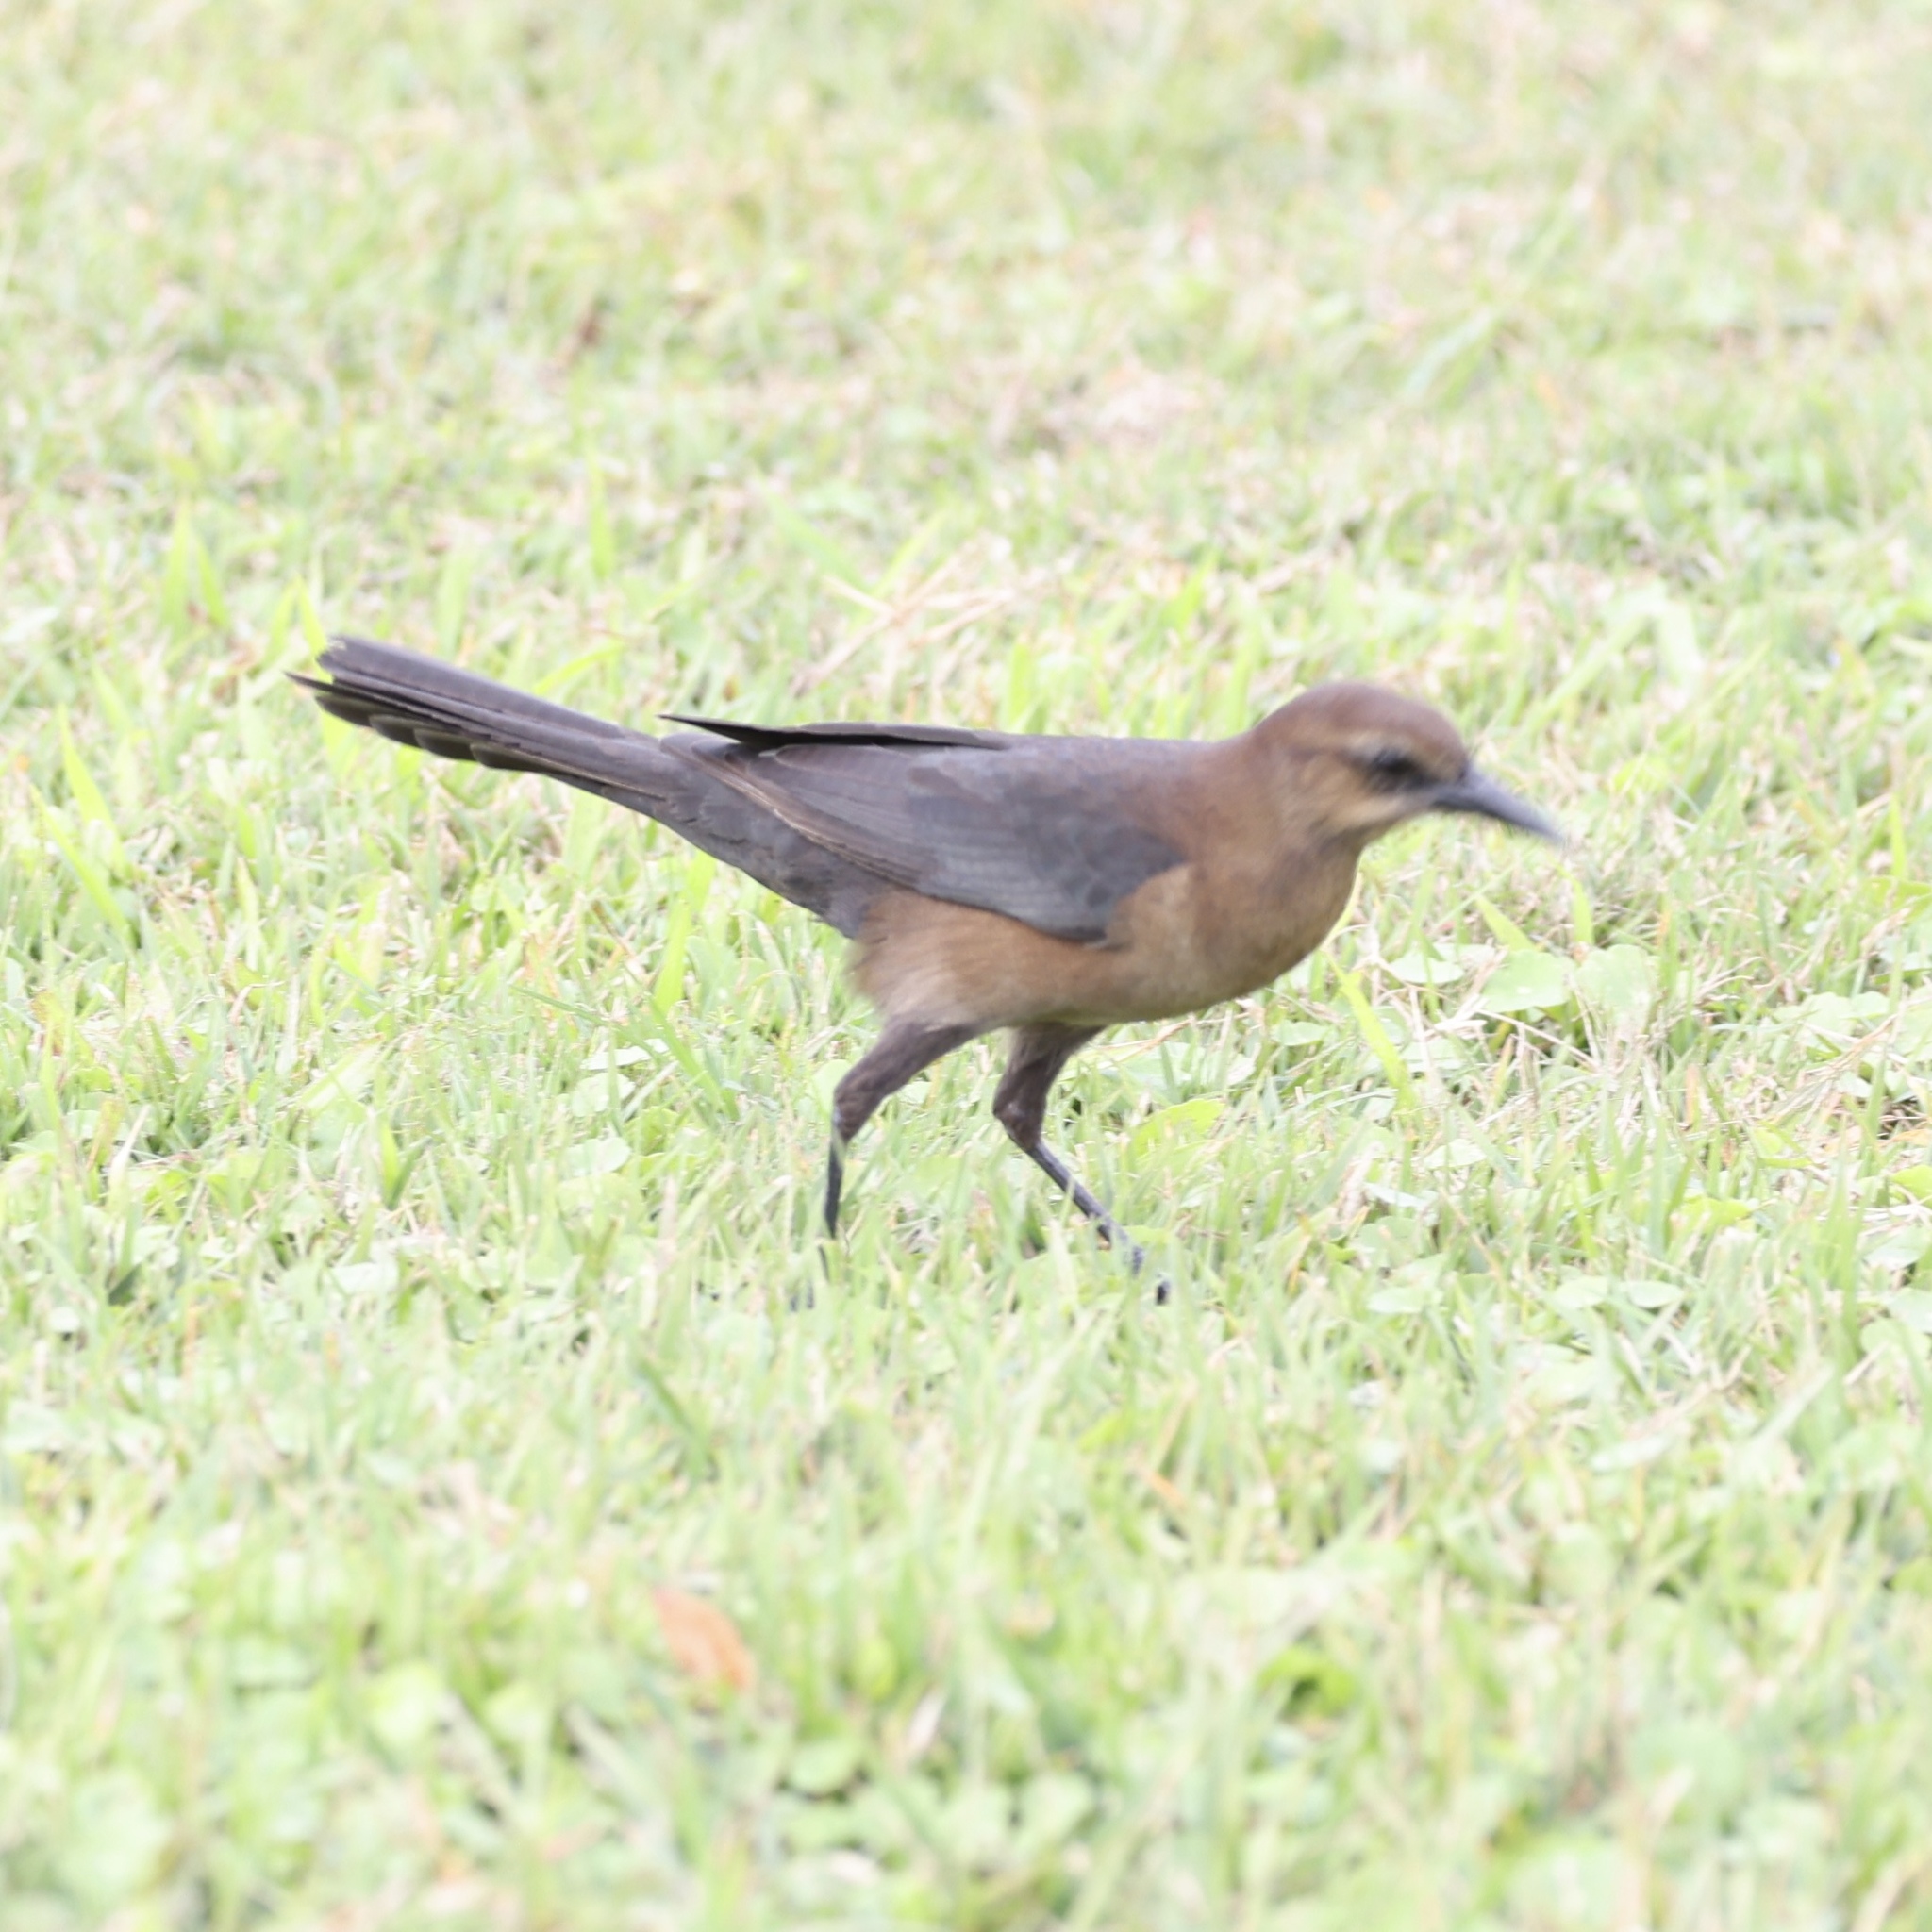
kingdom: Animalia
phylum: Chordata
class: Aves
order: Passeriformes
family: Icteridae
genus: Quiscalus
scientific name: Quiscalus major
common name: Boat-tailed grackle
